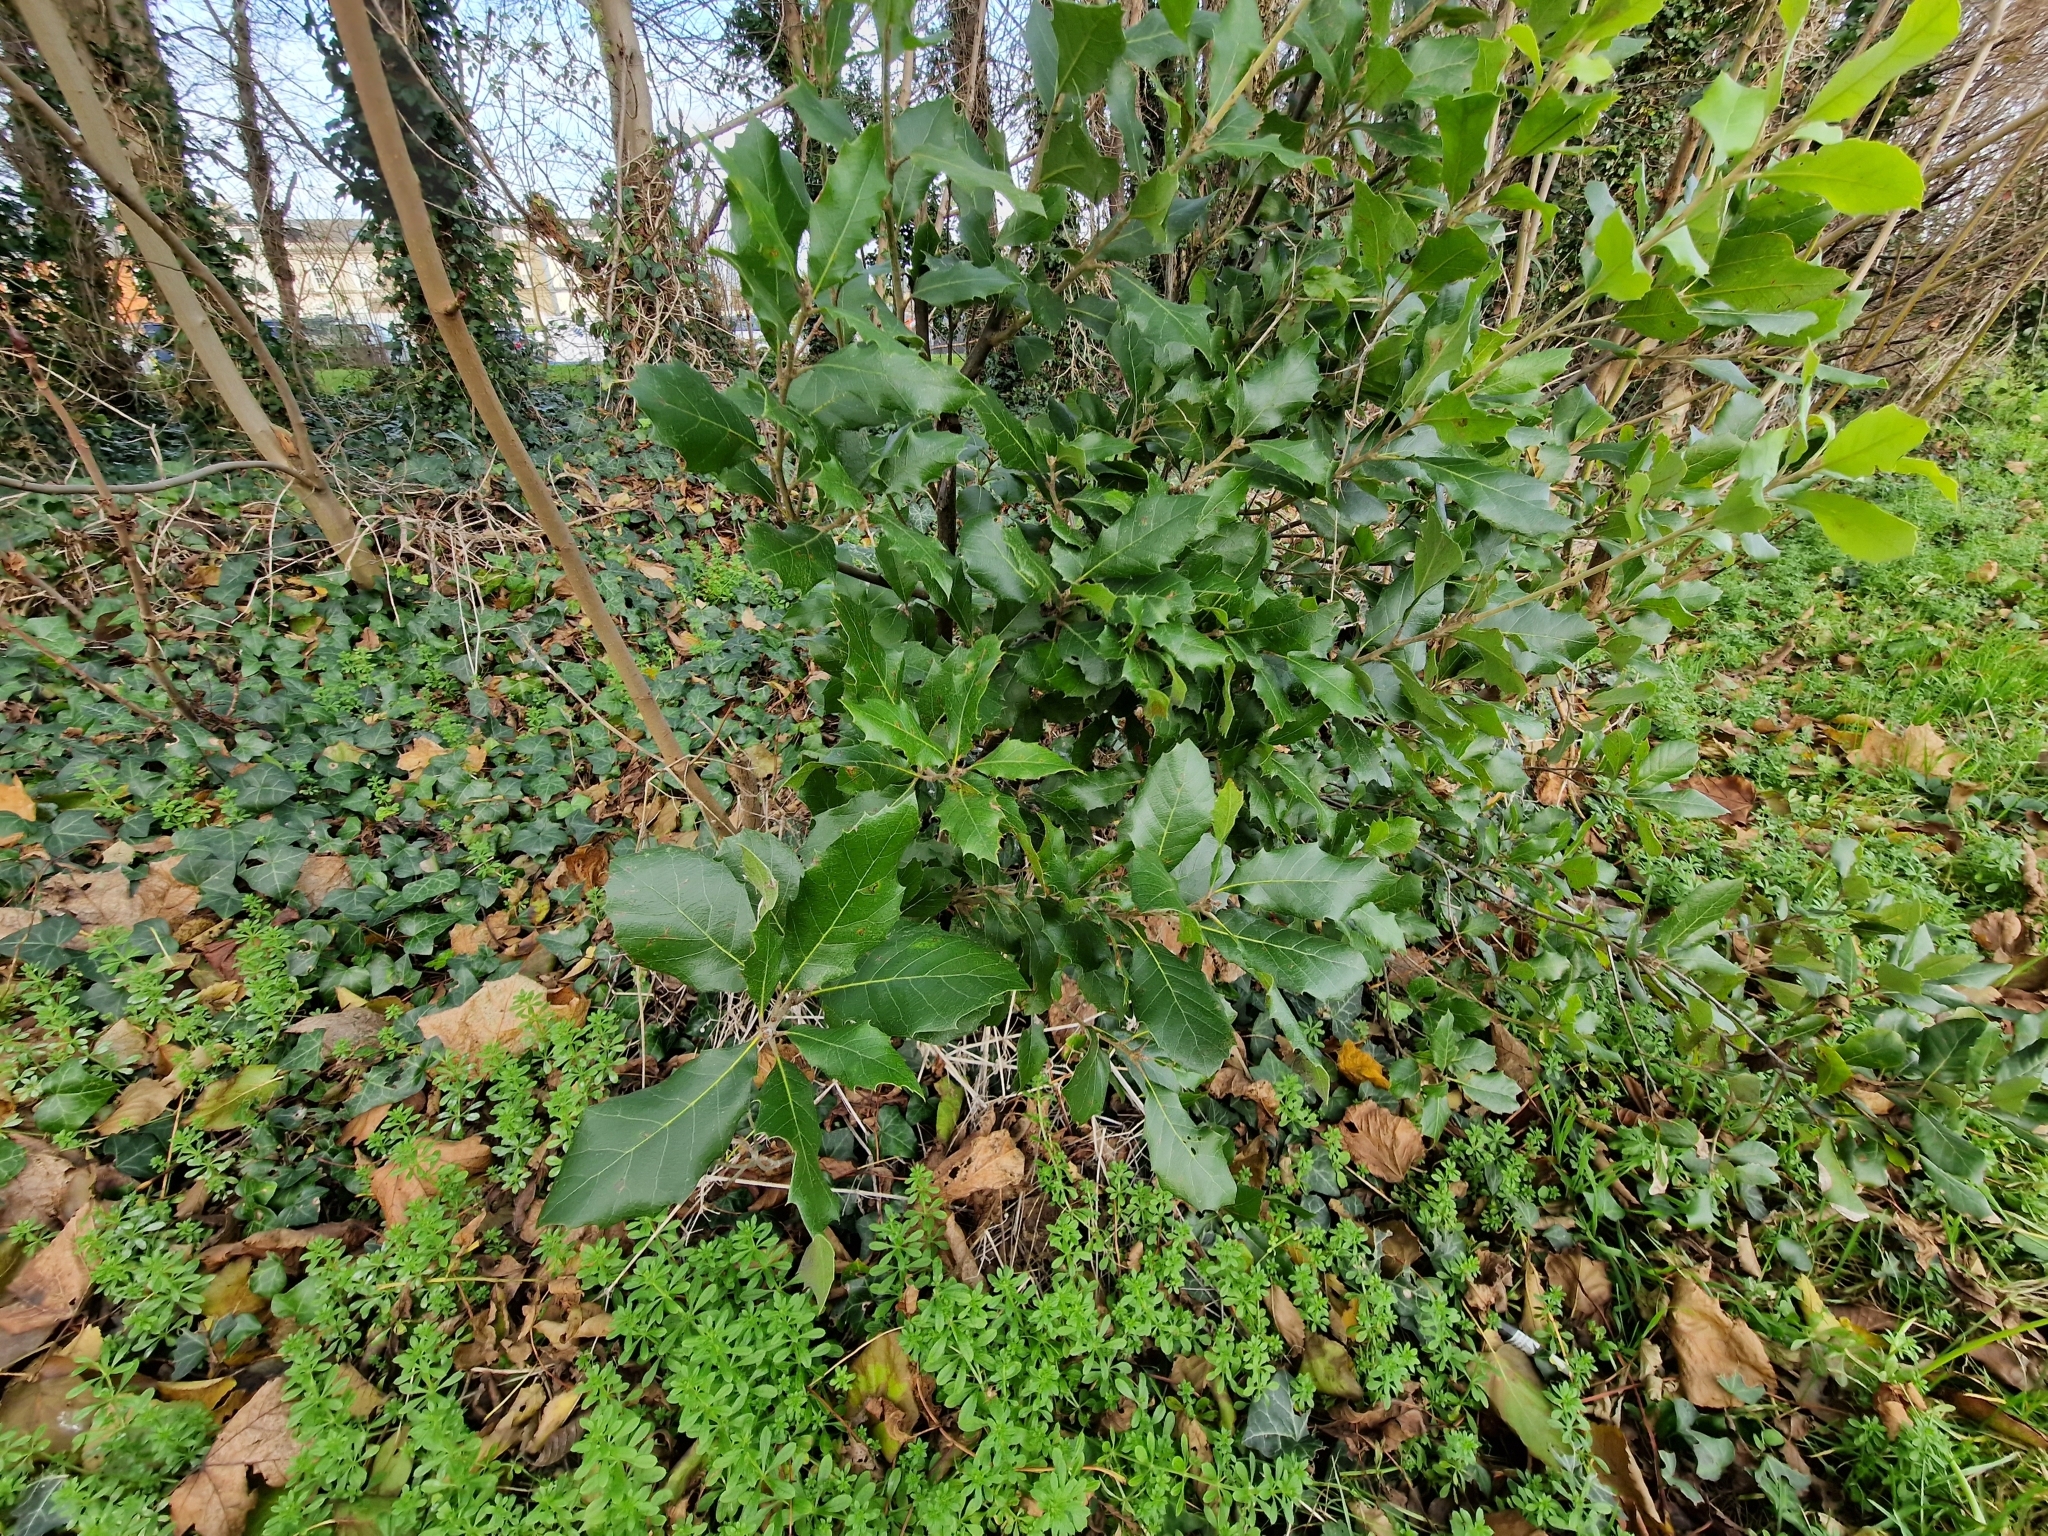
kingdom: Plantae
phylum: Tracheophyta
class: Magnoliopsida
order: Fagales
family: Fagaceae
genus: Quercus
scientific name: Quercus ilex
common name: Evergreen oak
